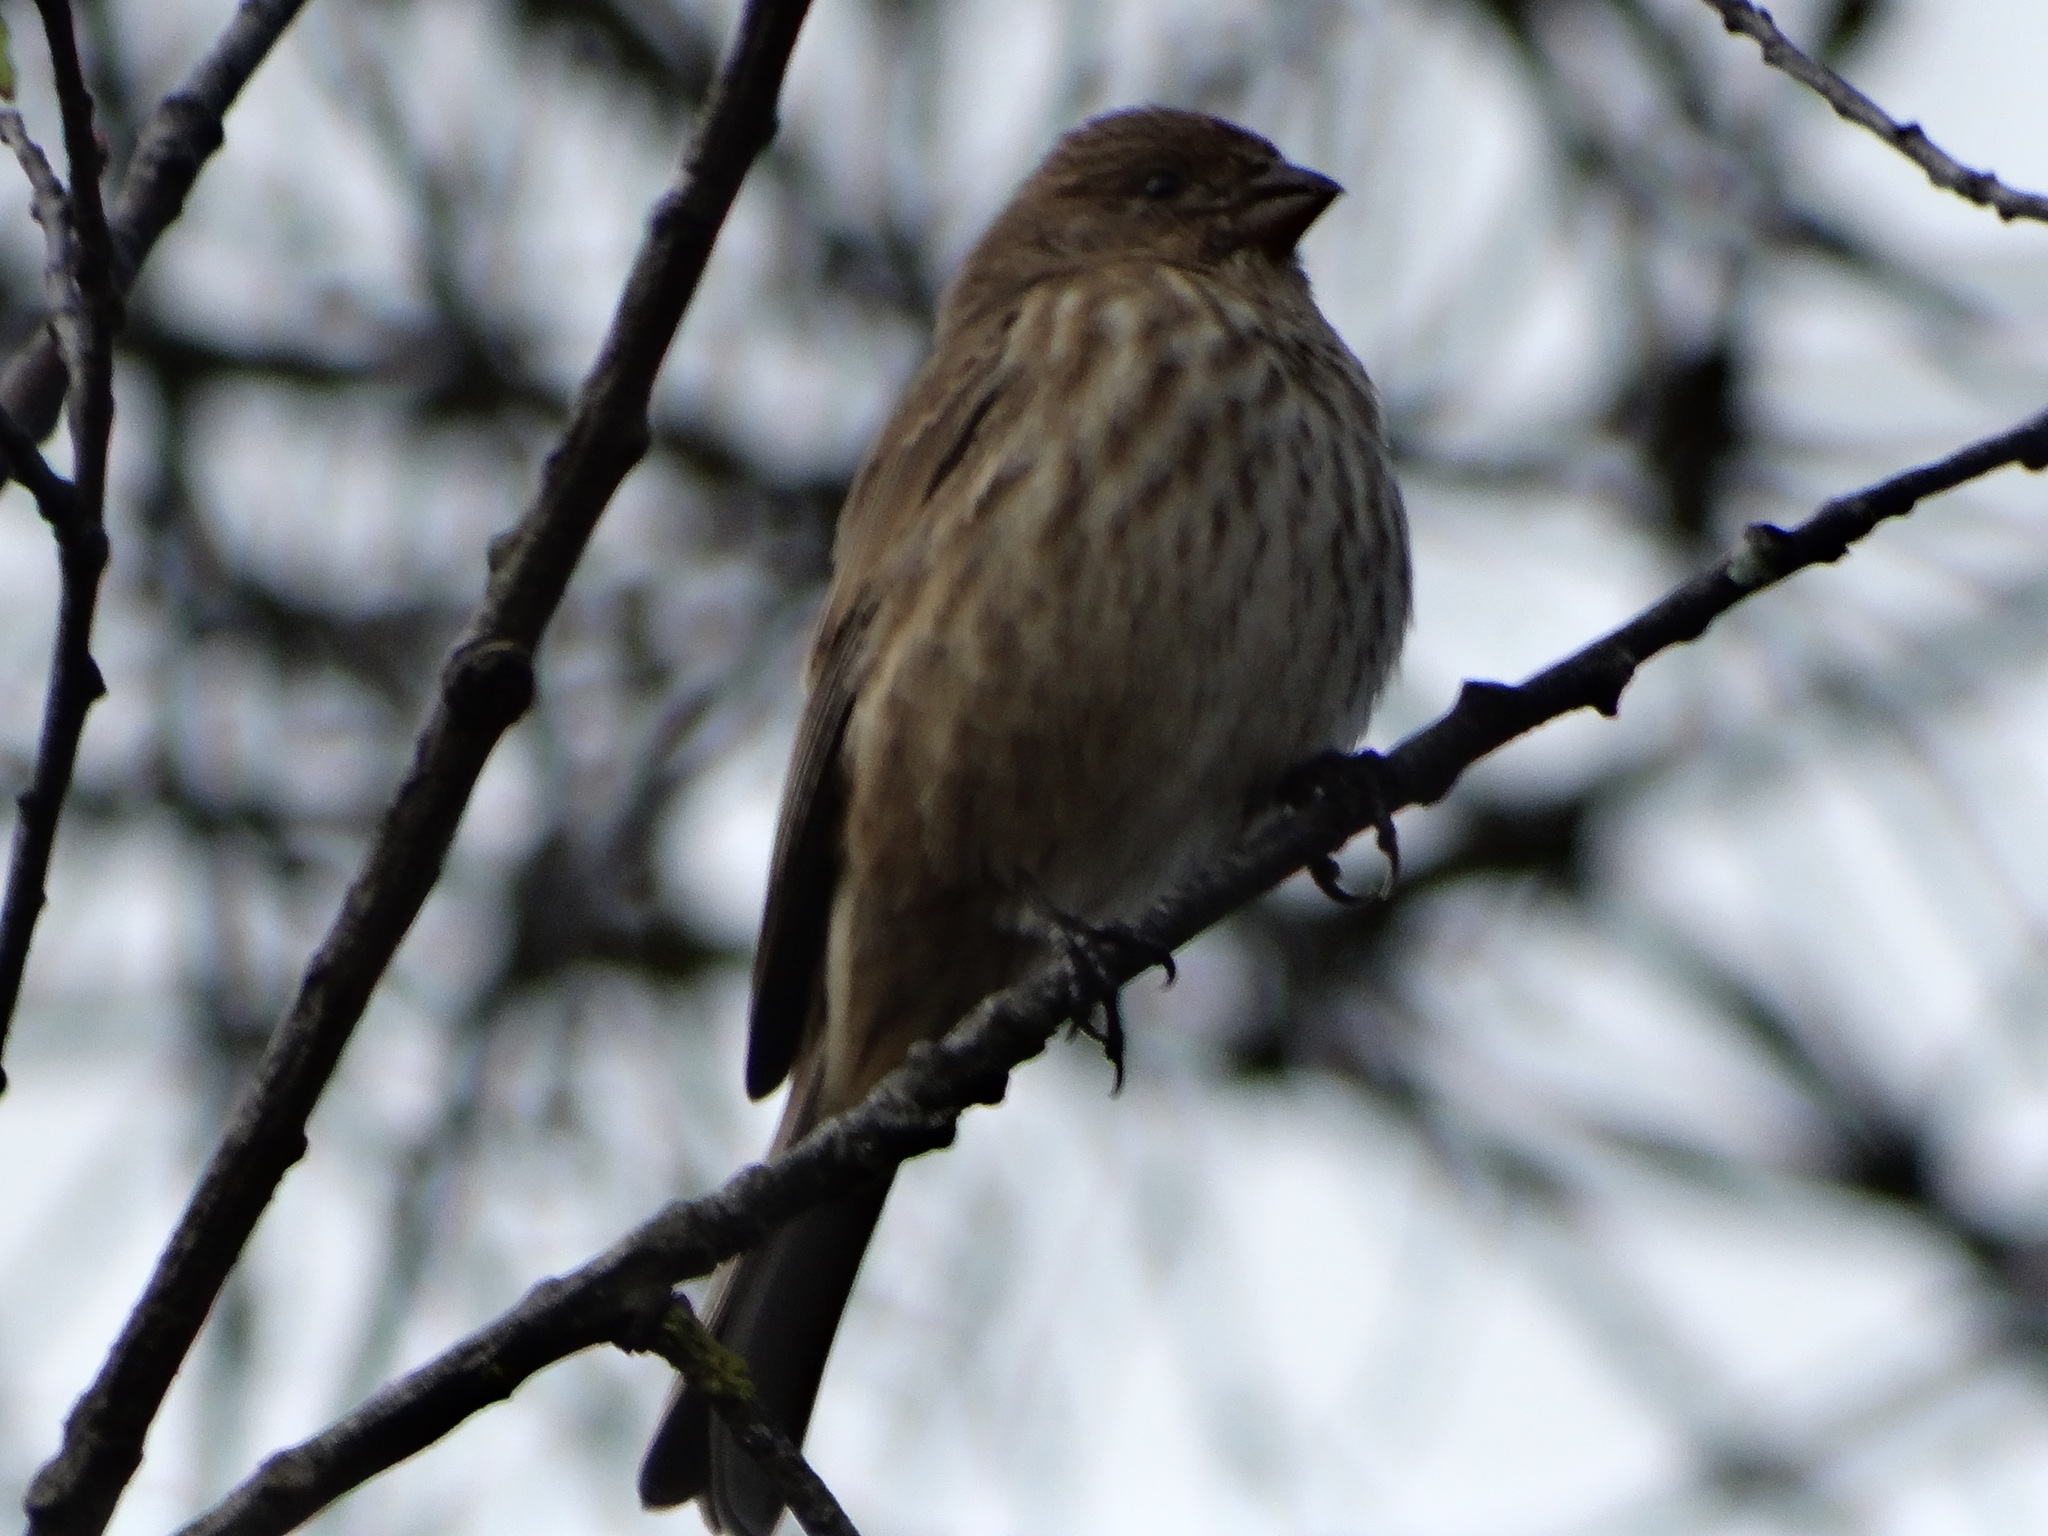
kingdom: Animalia
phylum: Chordata
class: Aves
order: Passeriformes
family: Fringillidae
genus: Haemorhous
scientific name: Haemorhous mexicanus
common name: House finch
